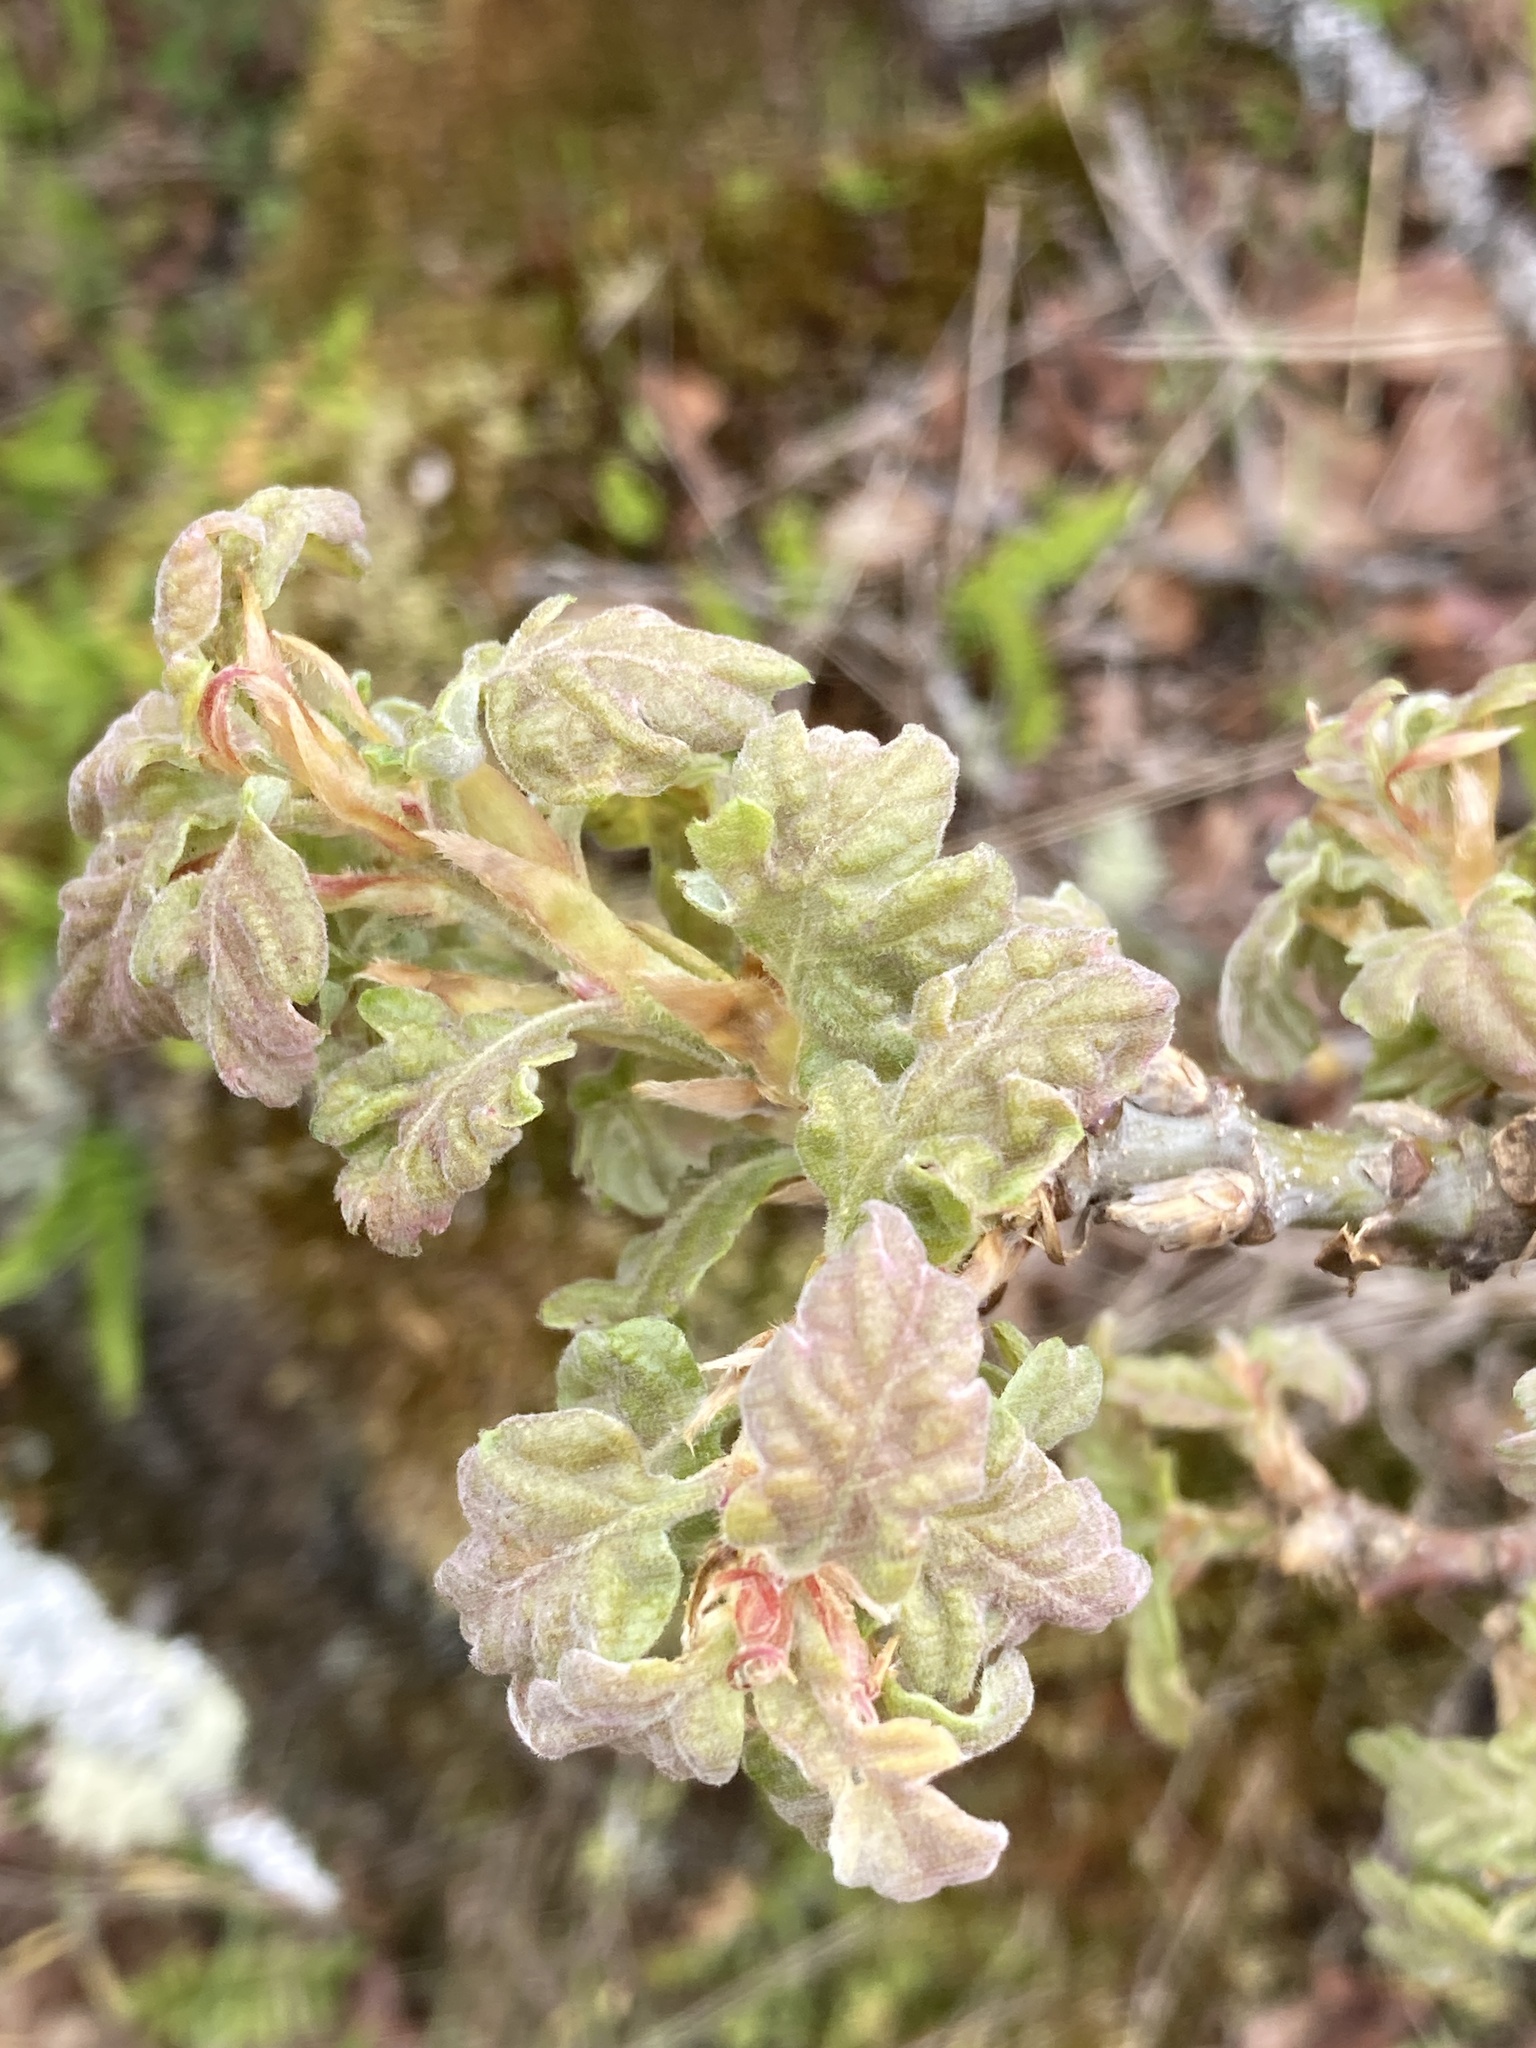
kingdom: Plantae
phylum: Tracheophyta
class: Magnoliopsida
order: Fagales
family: Fagaceae
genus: Quercus
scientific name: Quercus garryana
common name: Garry oak
